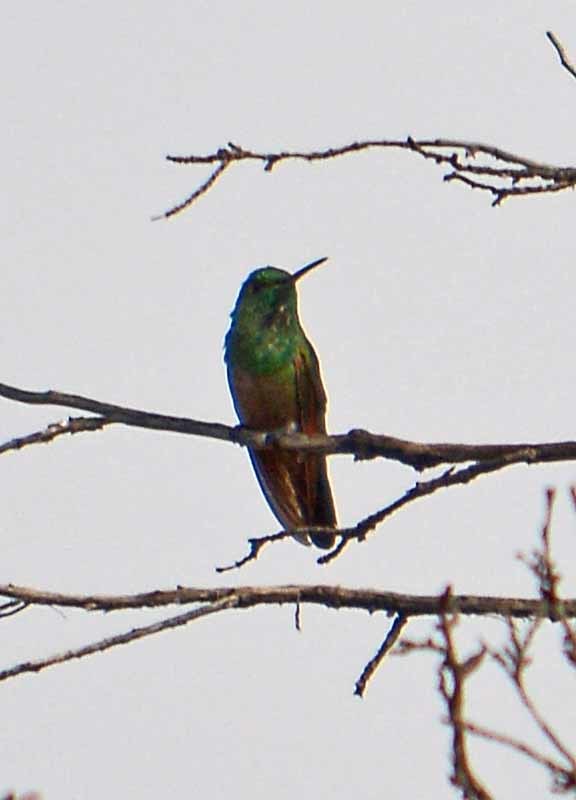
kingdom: Animalia
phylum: Chordata
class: Aves
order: Apodiformes
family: Trochilidae
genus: Saucerottia
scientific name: Saucerottia beryllina
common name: Berylline hummingbird
